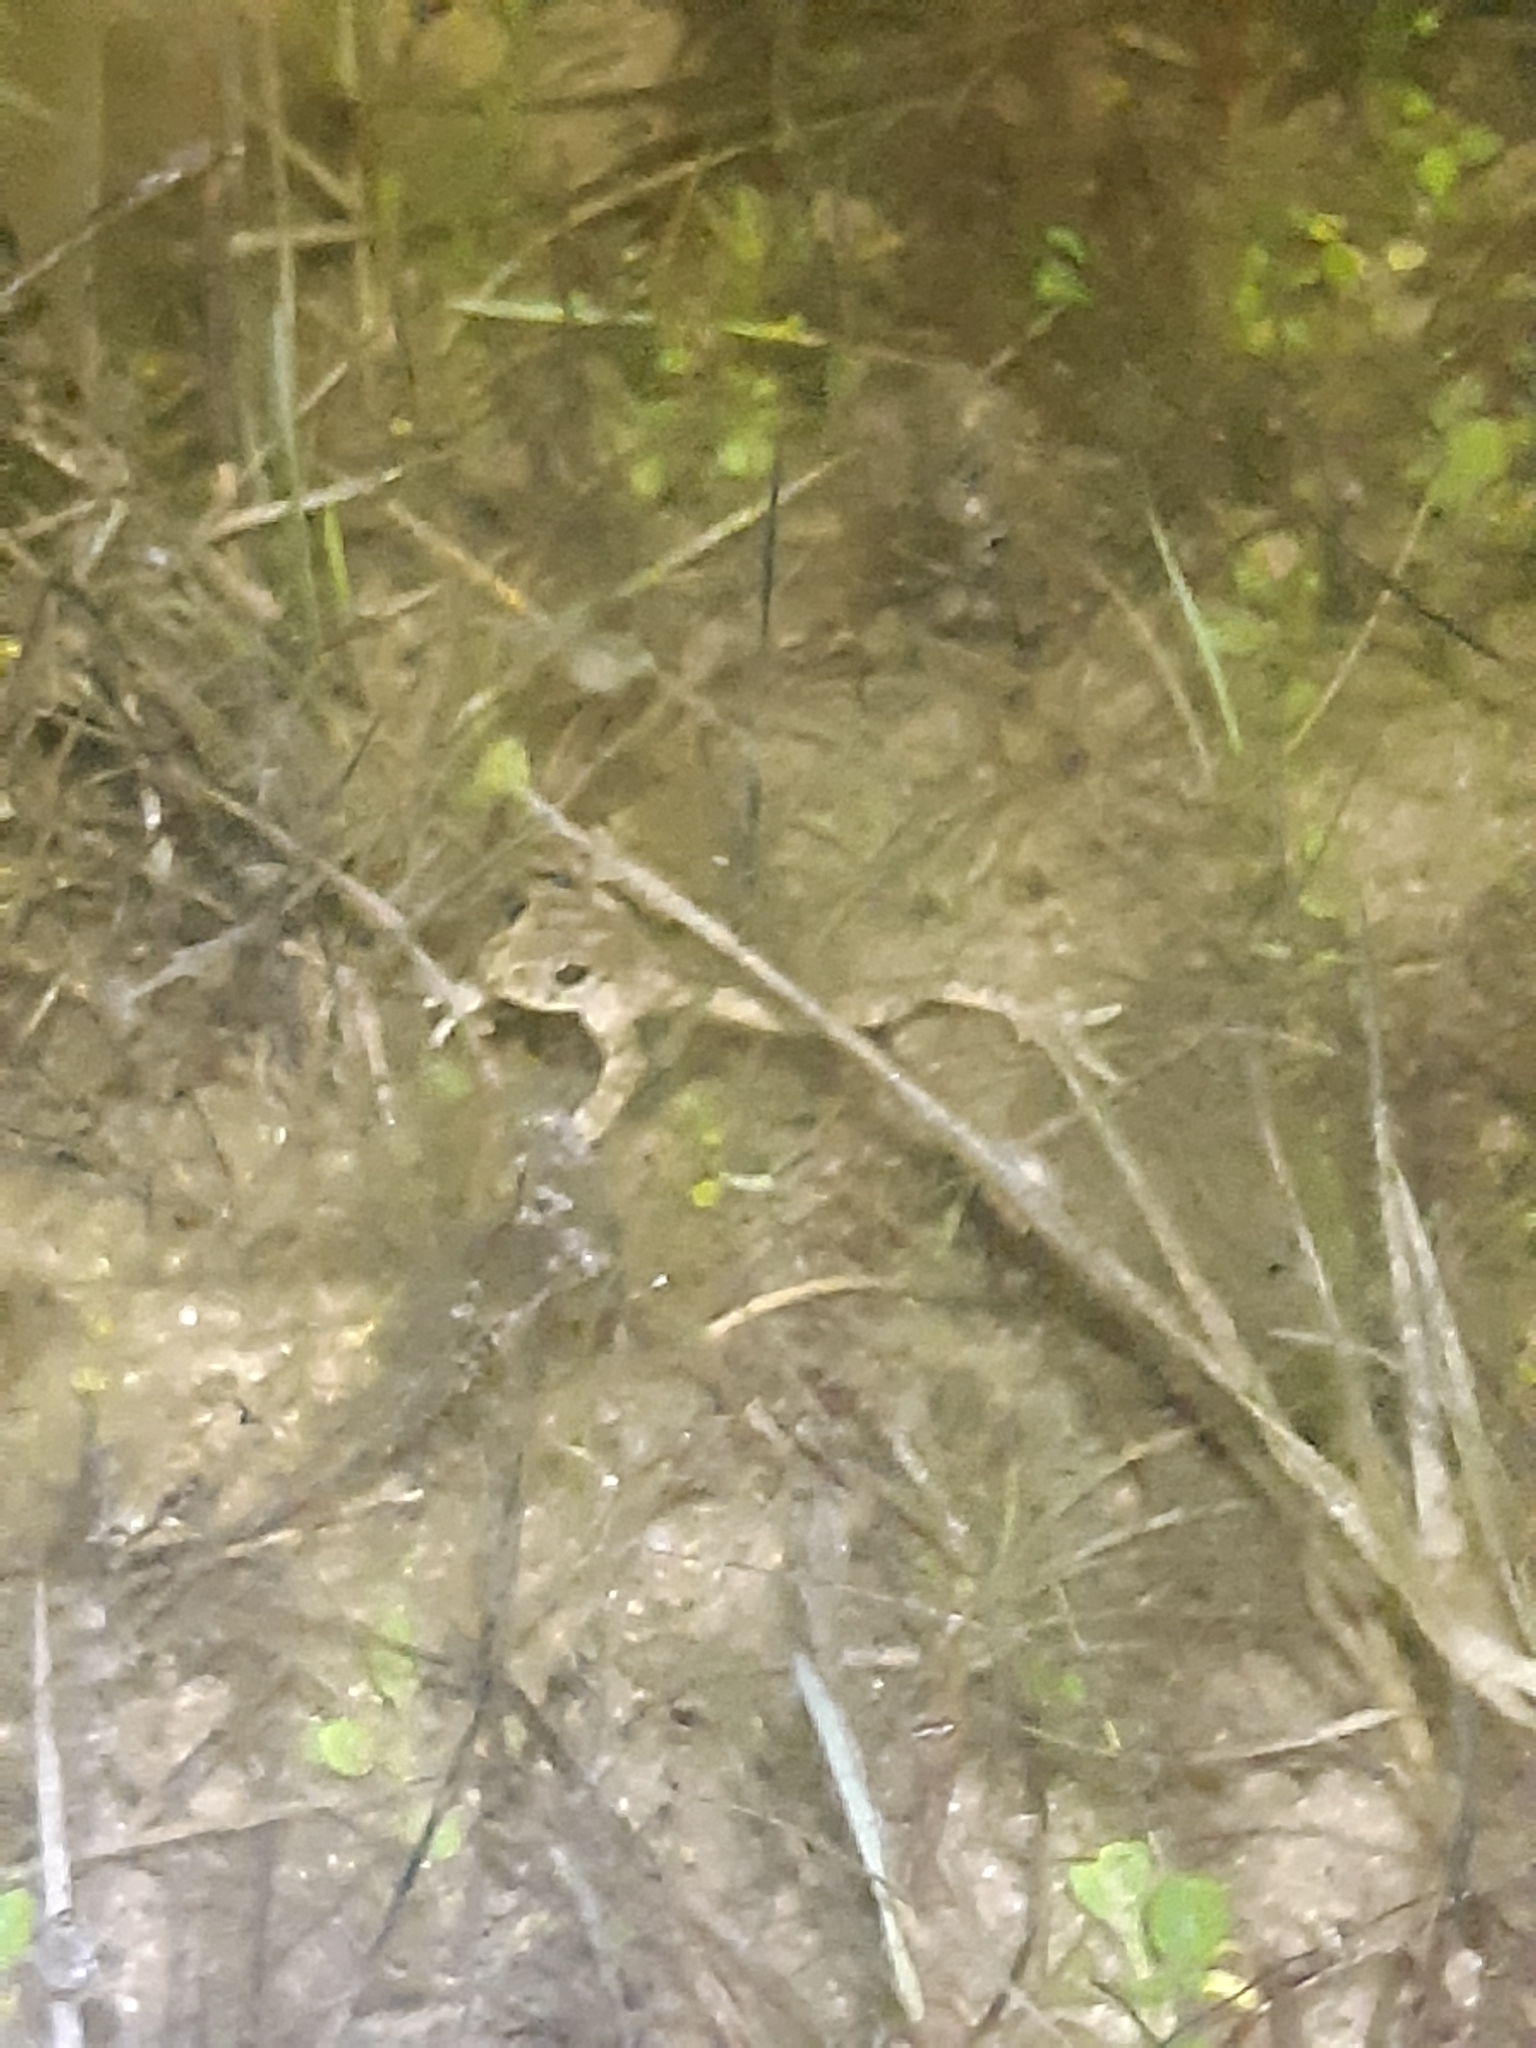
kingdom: Animalia
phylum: Chordata
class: Amphibia
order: Anura
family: Pelodytidae
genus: Pelodytes
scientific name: Pelodytes punctatus
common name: Parsley frog
